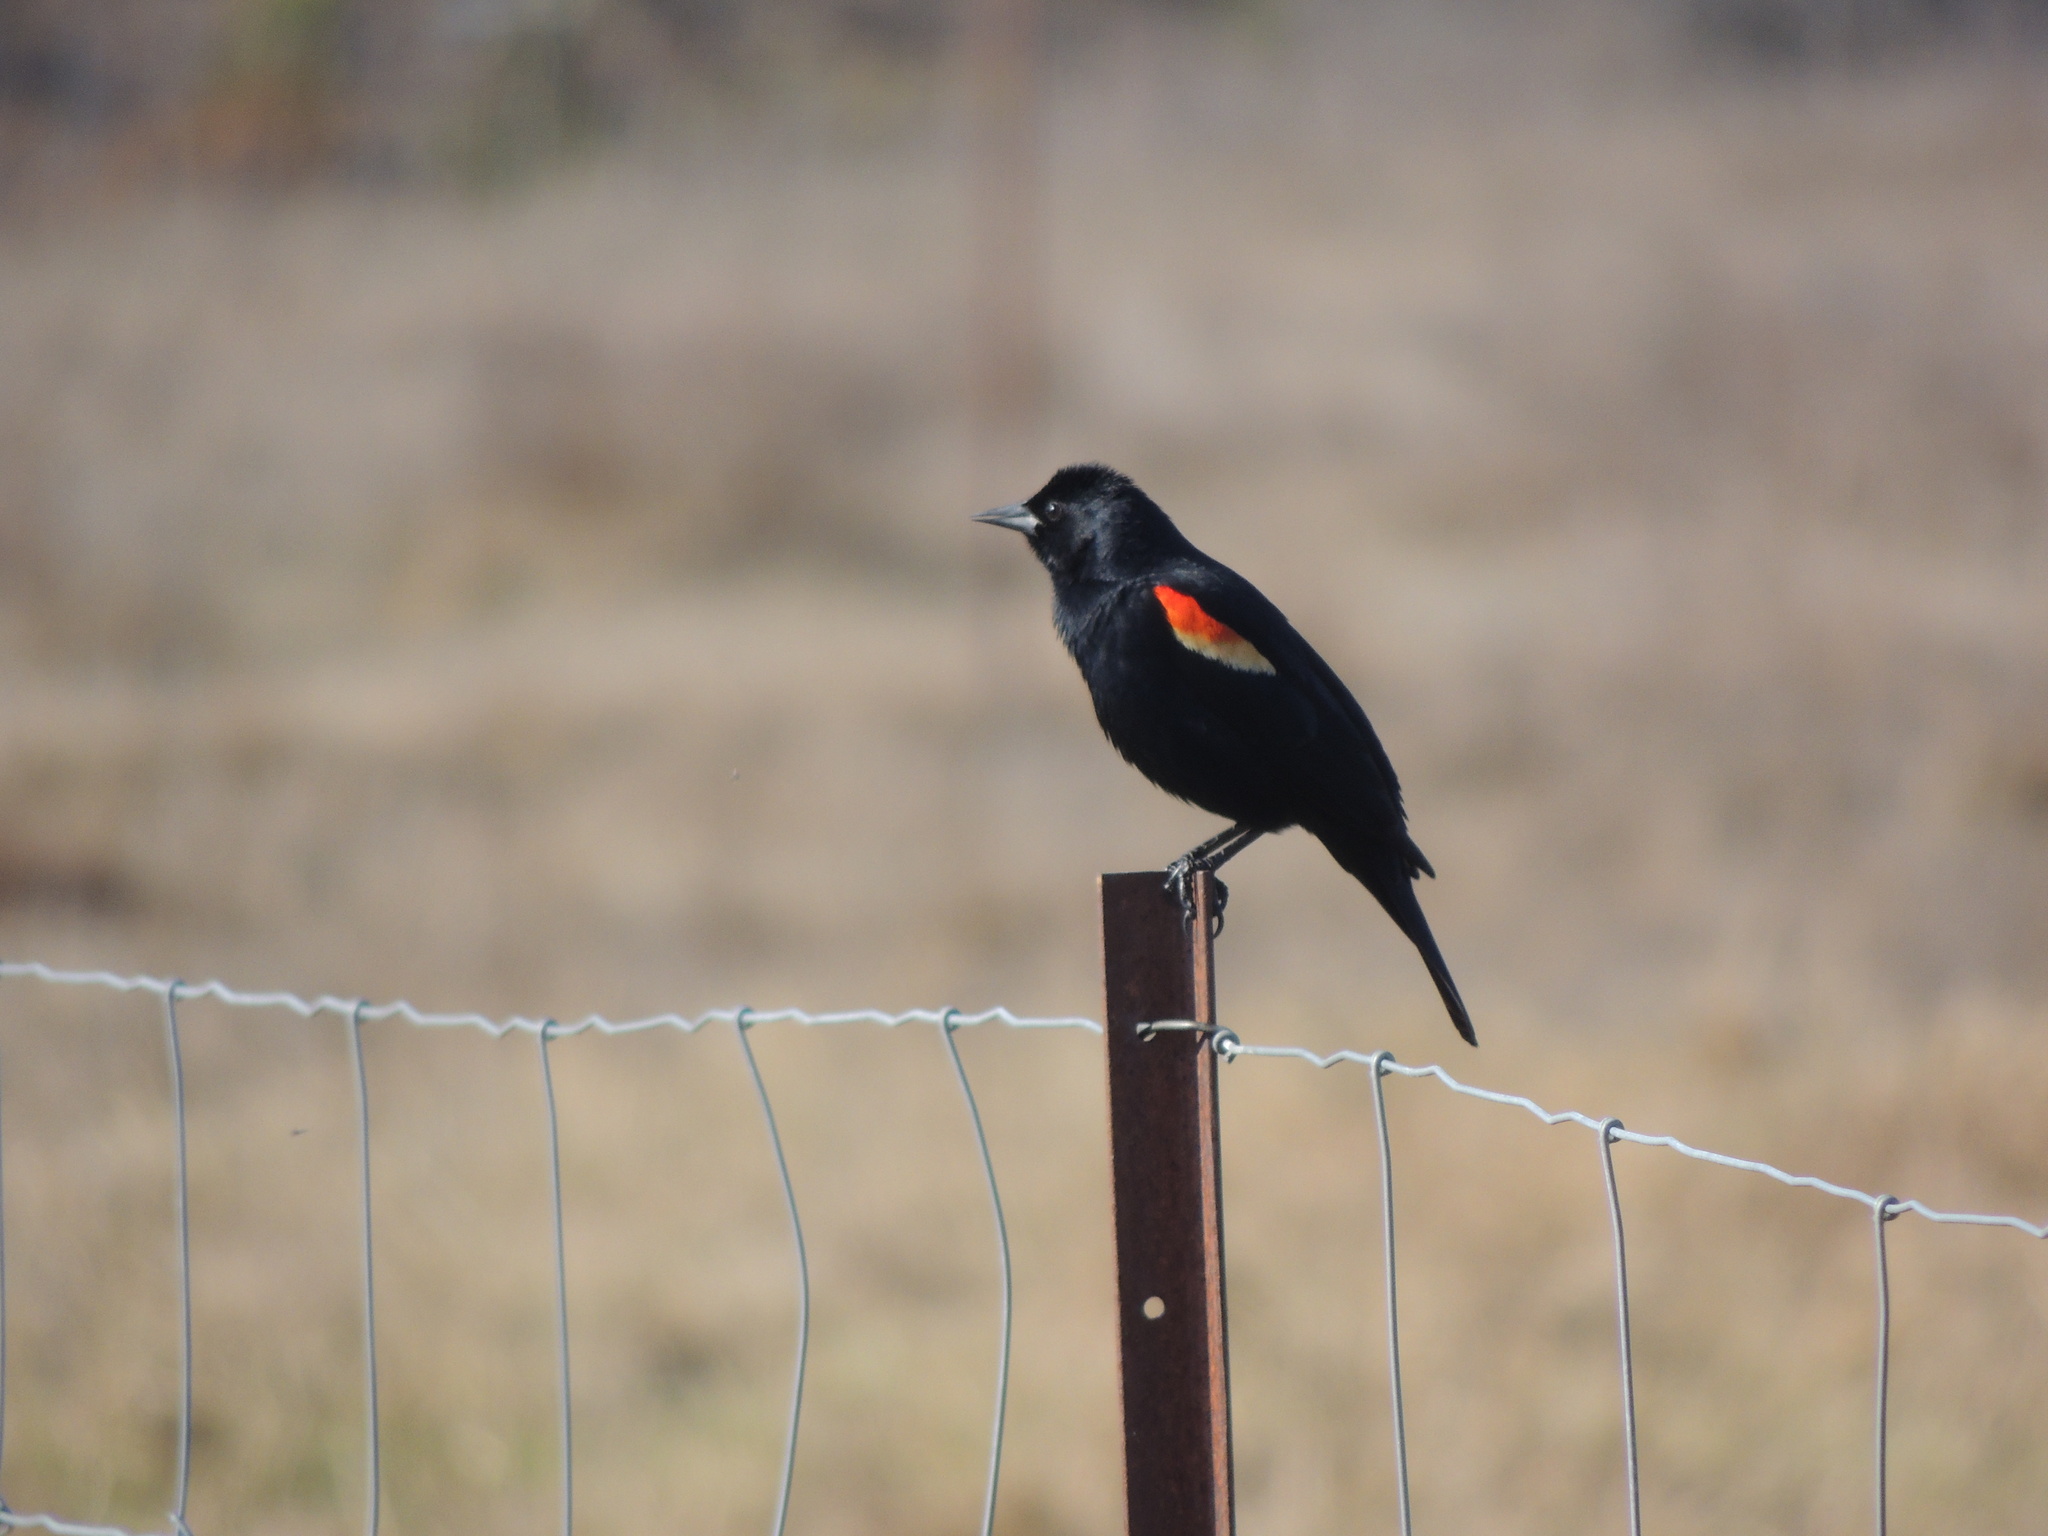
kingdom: Animalia
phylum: Chordata
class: Aves
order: Passeriformes
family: Icteridae
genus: Agelaius
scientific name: Agelaius phoeniceus
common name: Red-winged blackbird
